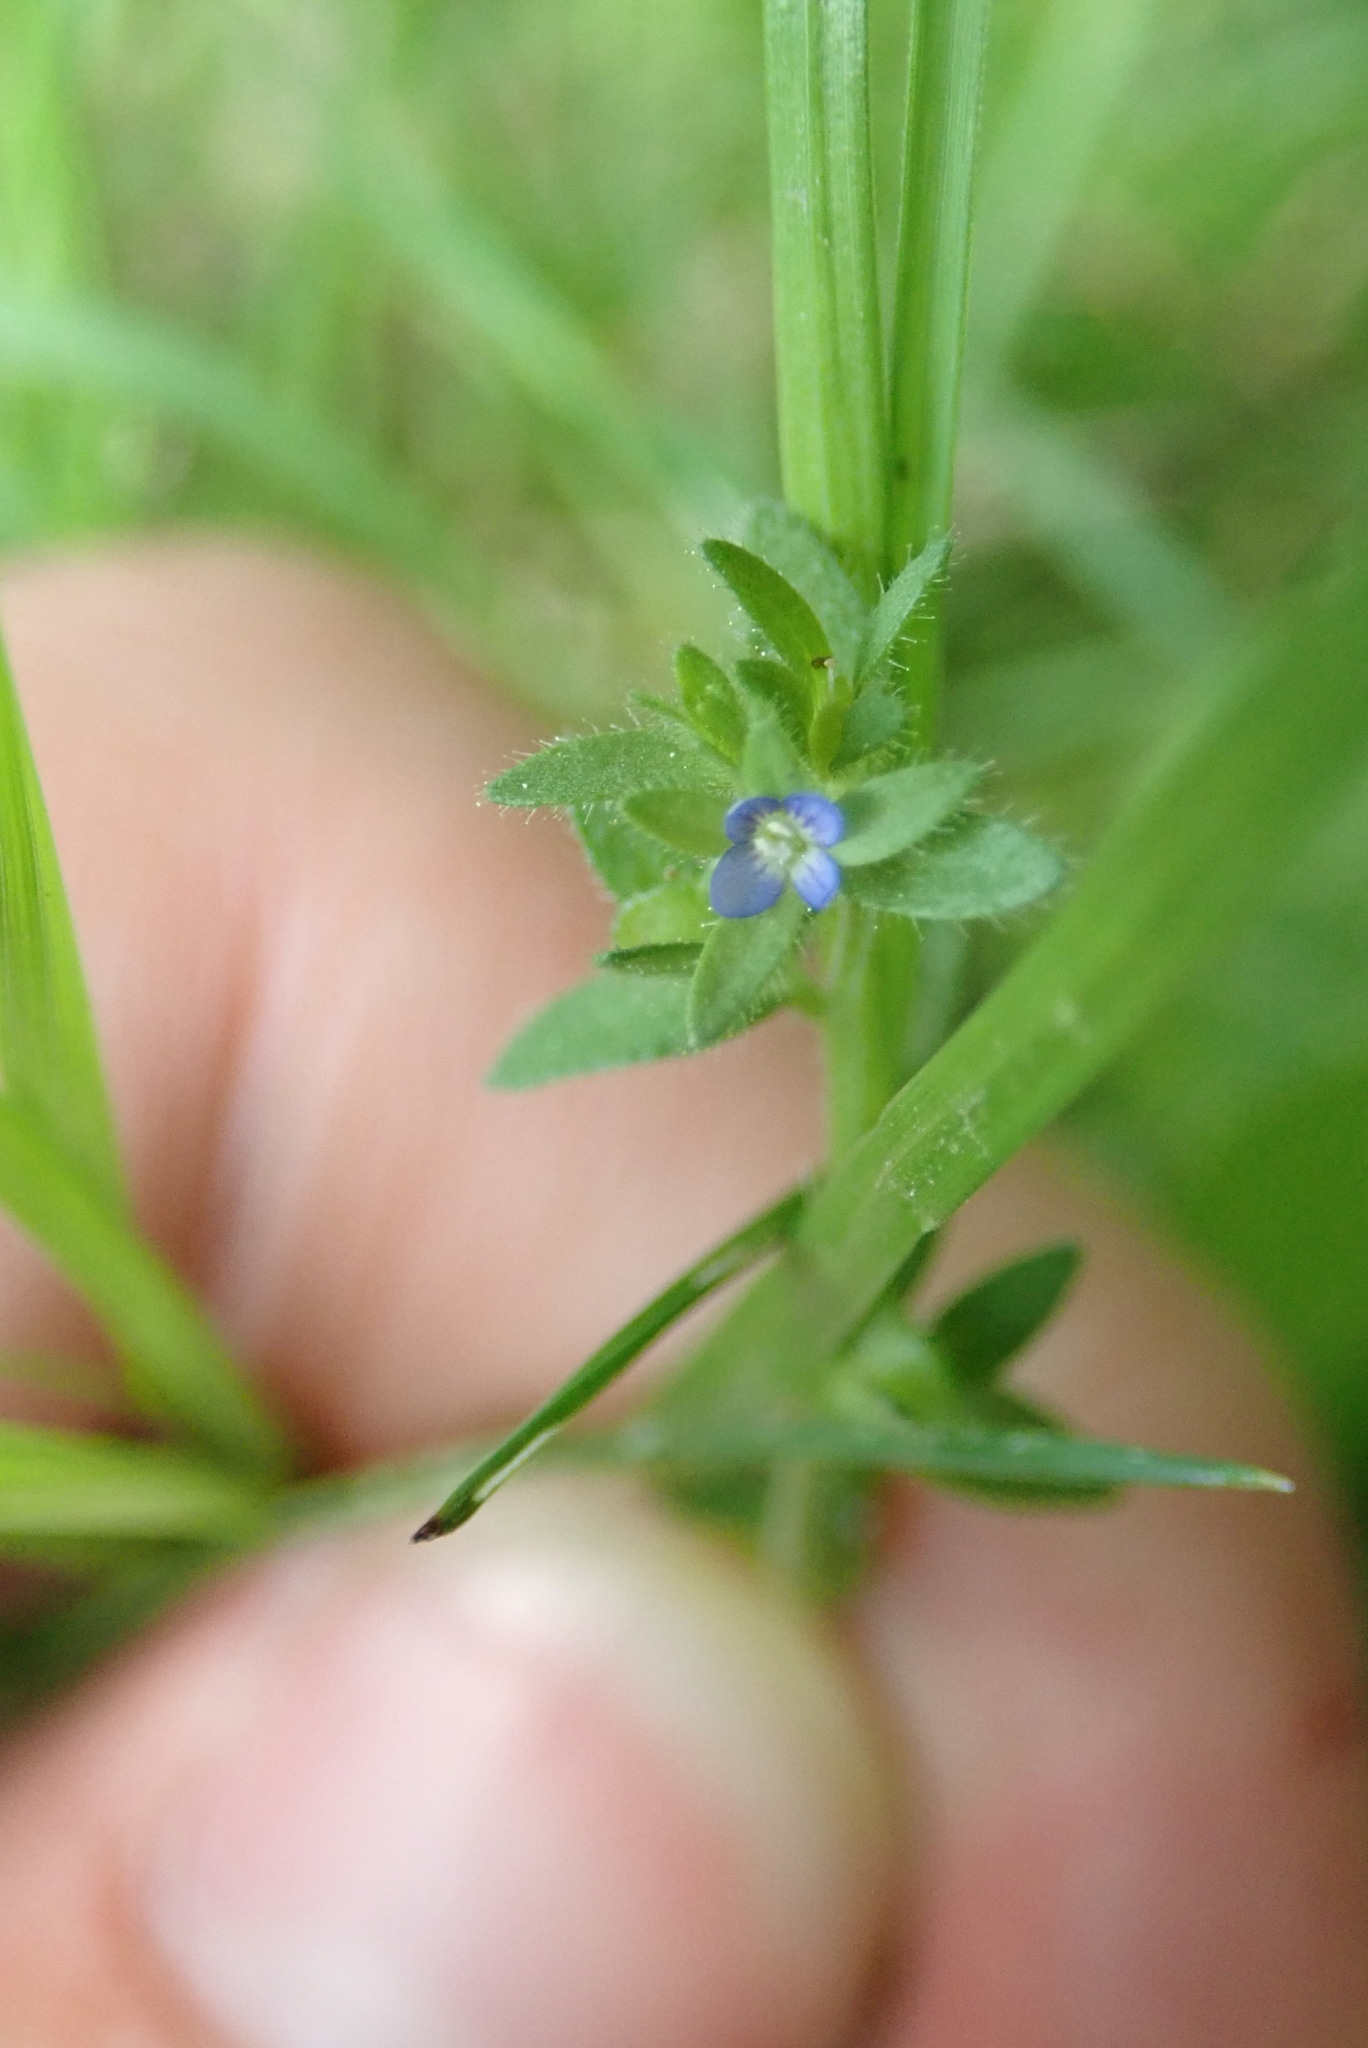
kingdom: Plantae
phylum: Tracheophyta
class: Magnoliopsida
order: Lamiales
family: Plantaginaceae
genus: Veronica
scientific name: Veronica arvensis
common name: Corn speedwell
